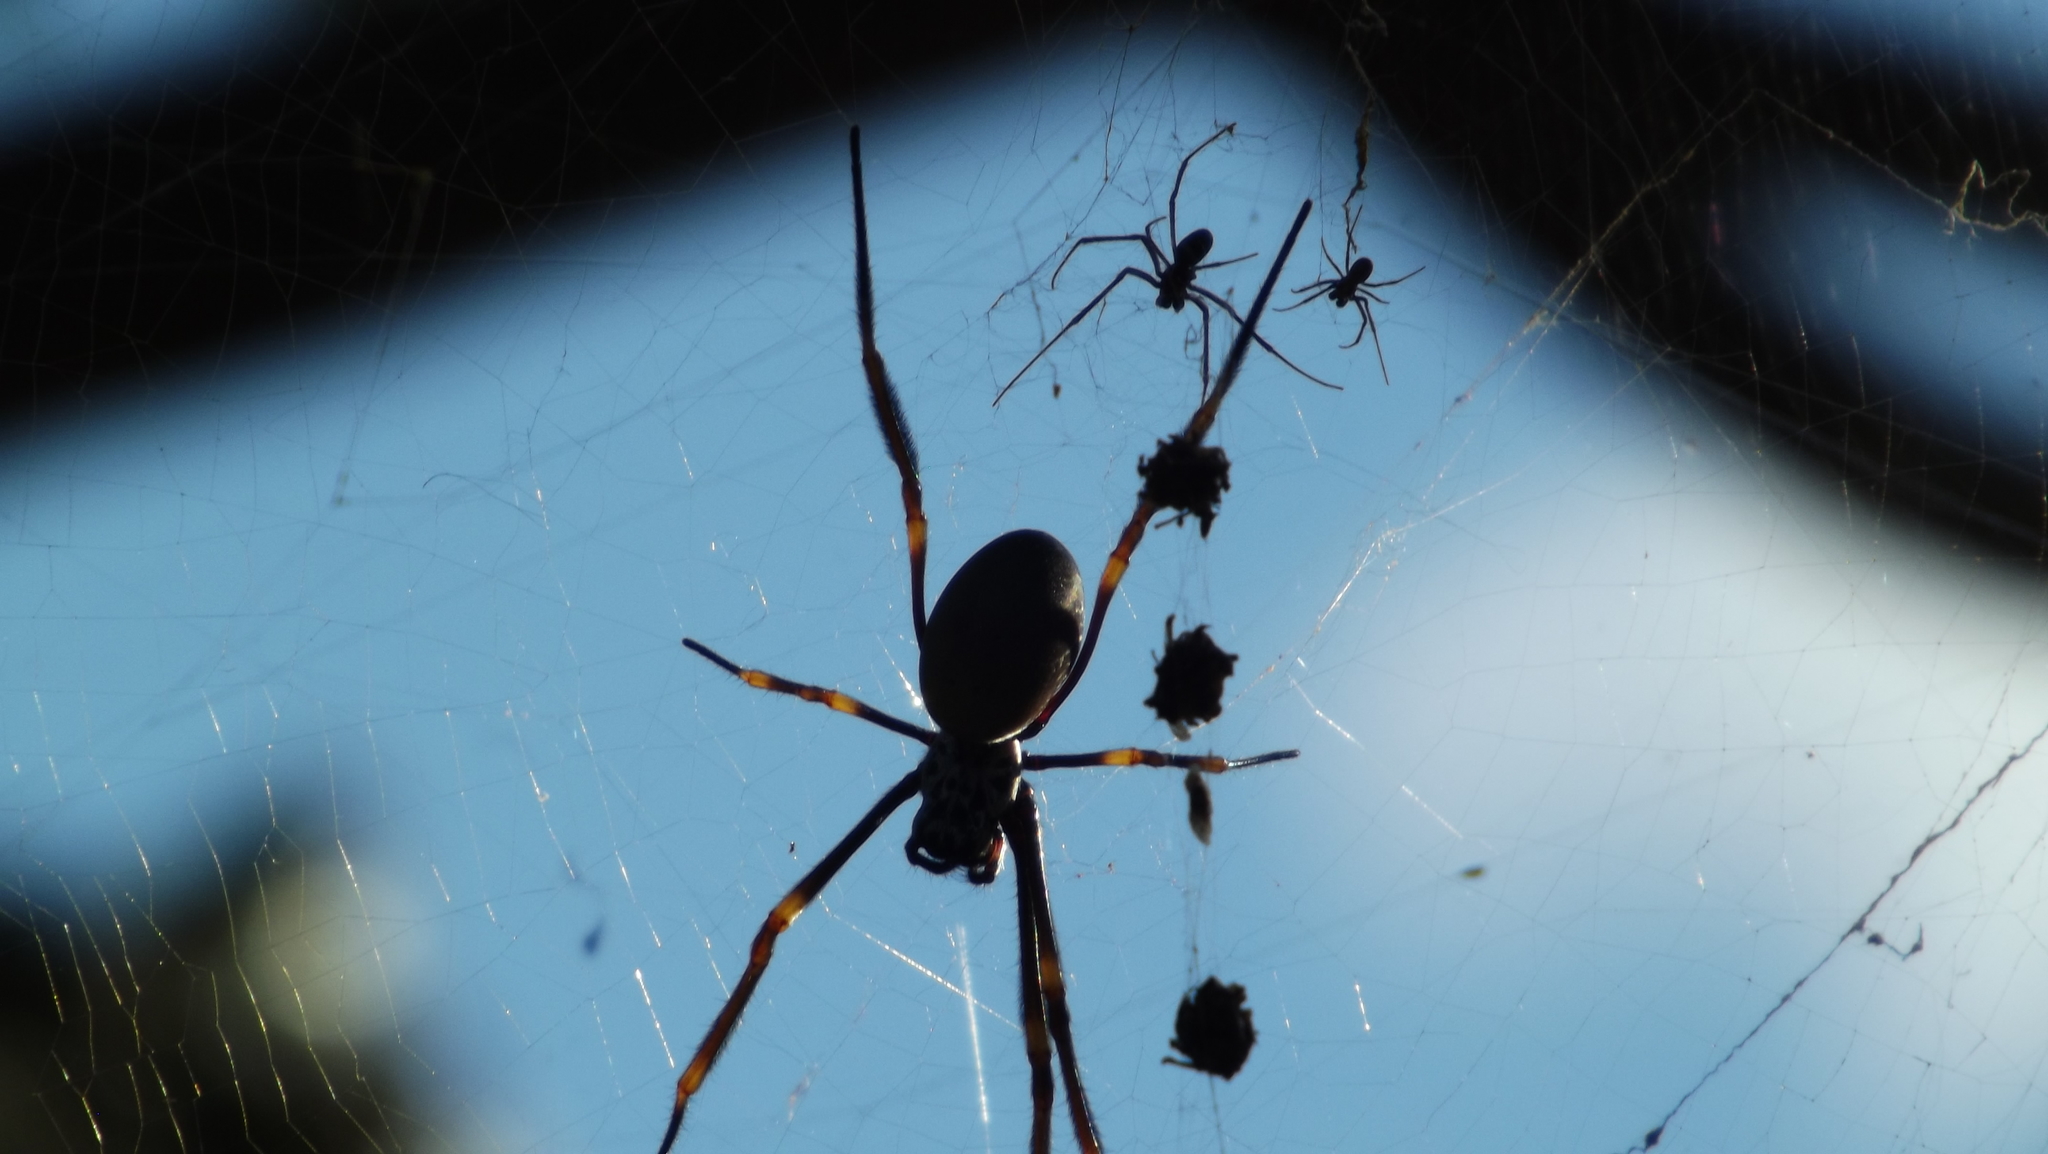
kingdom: Animalia
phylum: Arthropoda
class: Arachnida
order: Araneae
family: Araneidae
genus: Trichonephila
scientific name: Trichonephila plumipes
